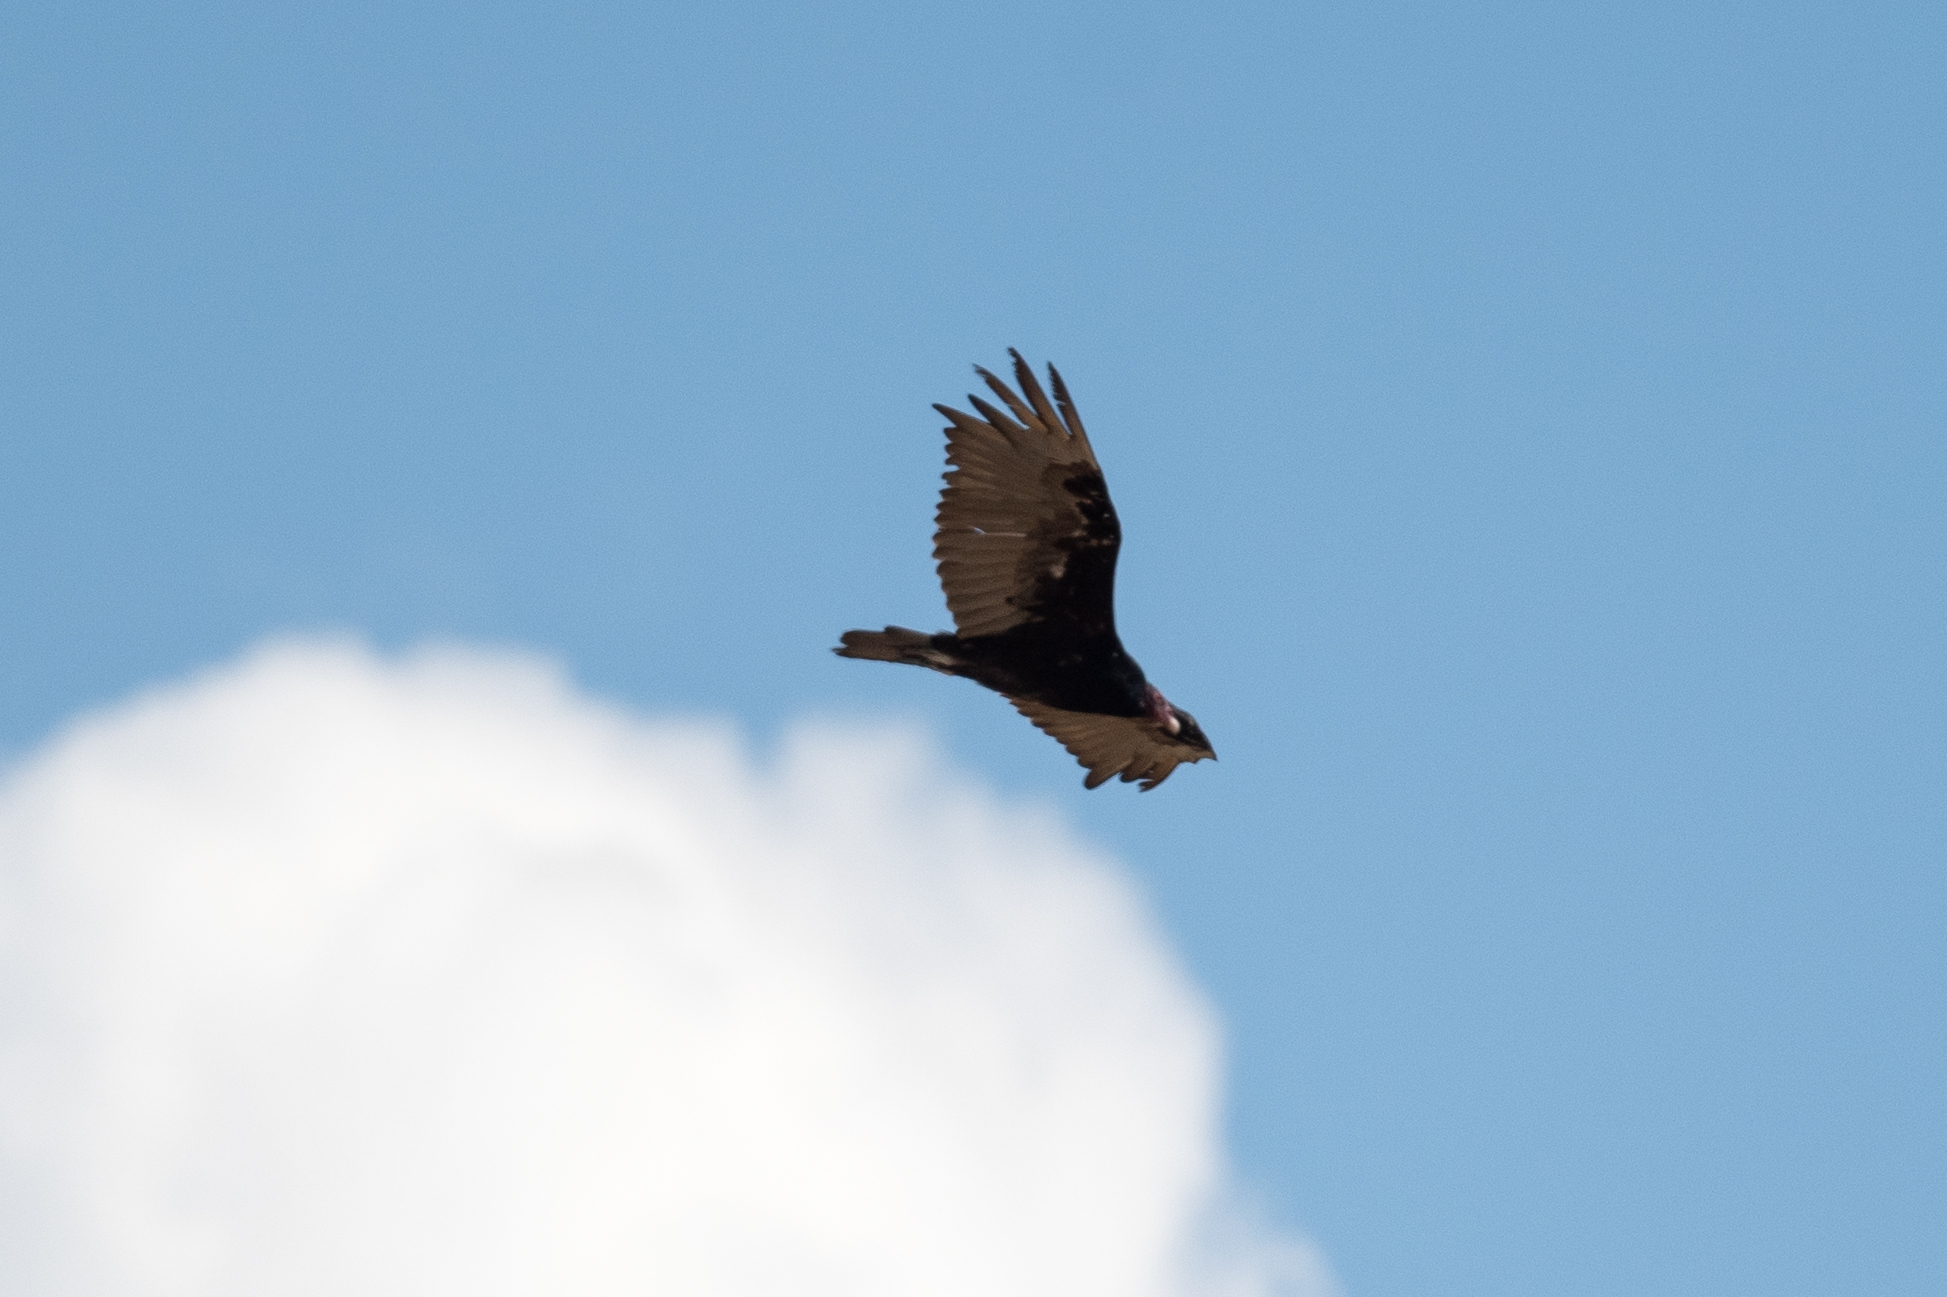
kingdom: Animalia
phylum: Chordata
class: Aves
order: Accipitriformes
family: Cathartidae
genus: Cathartes
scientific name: Cathartes aura
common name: Turkey vulture
